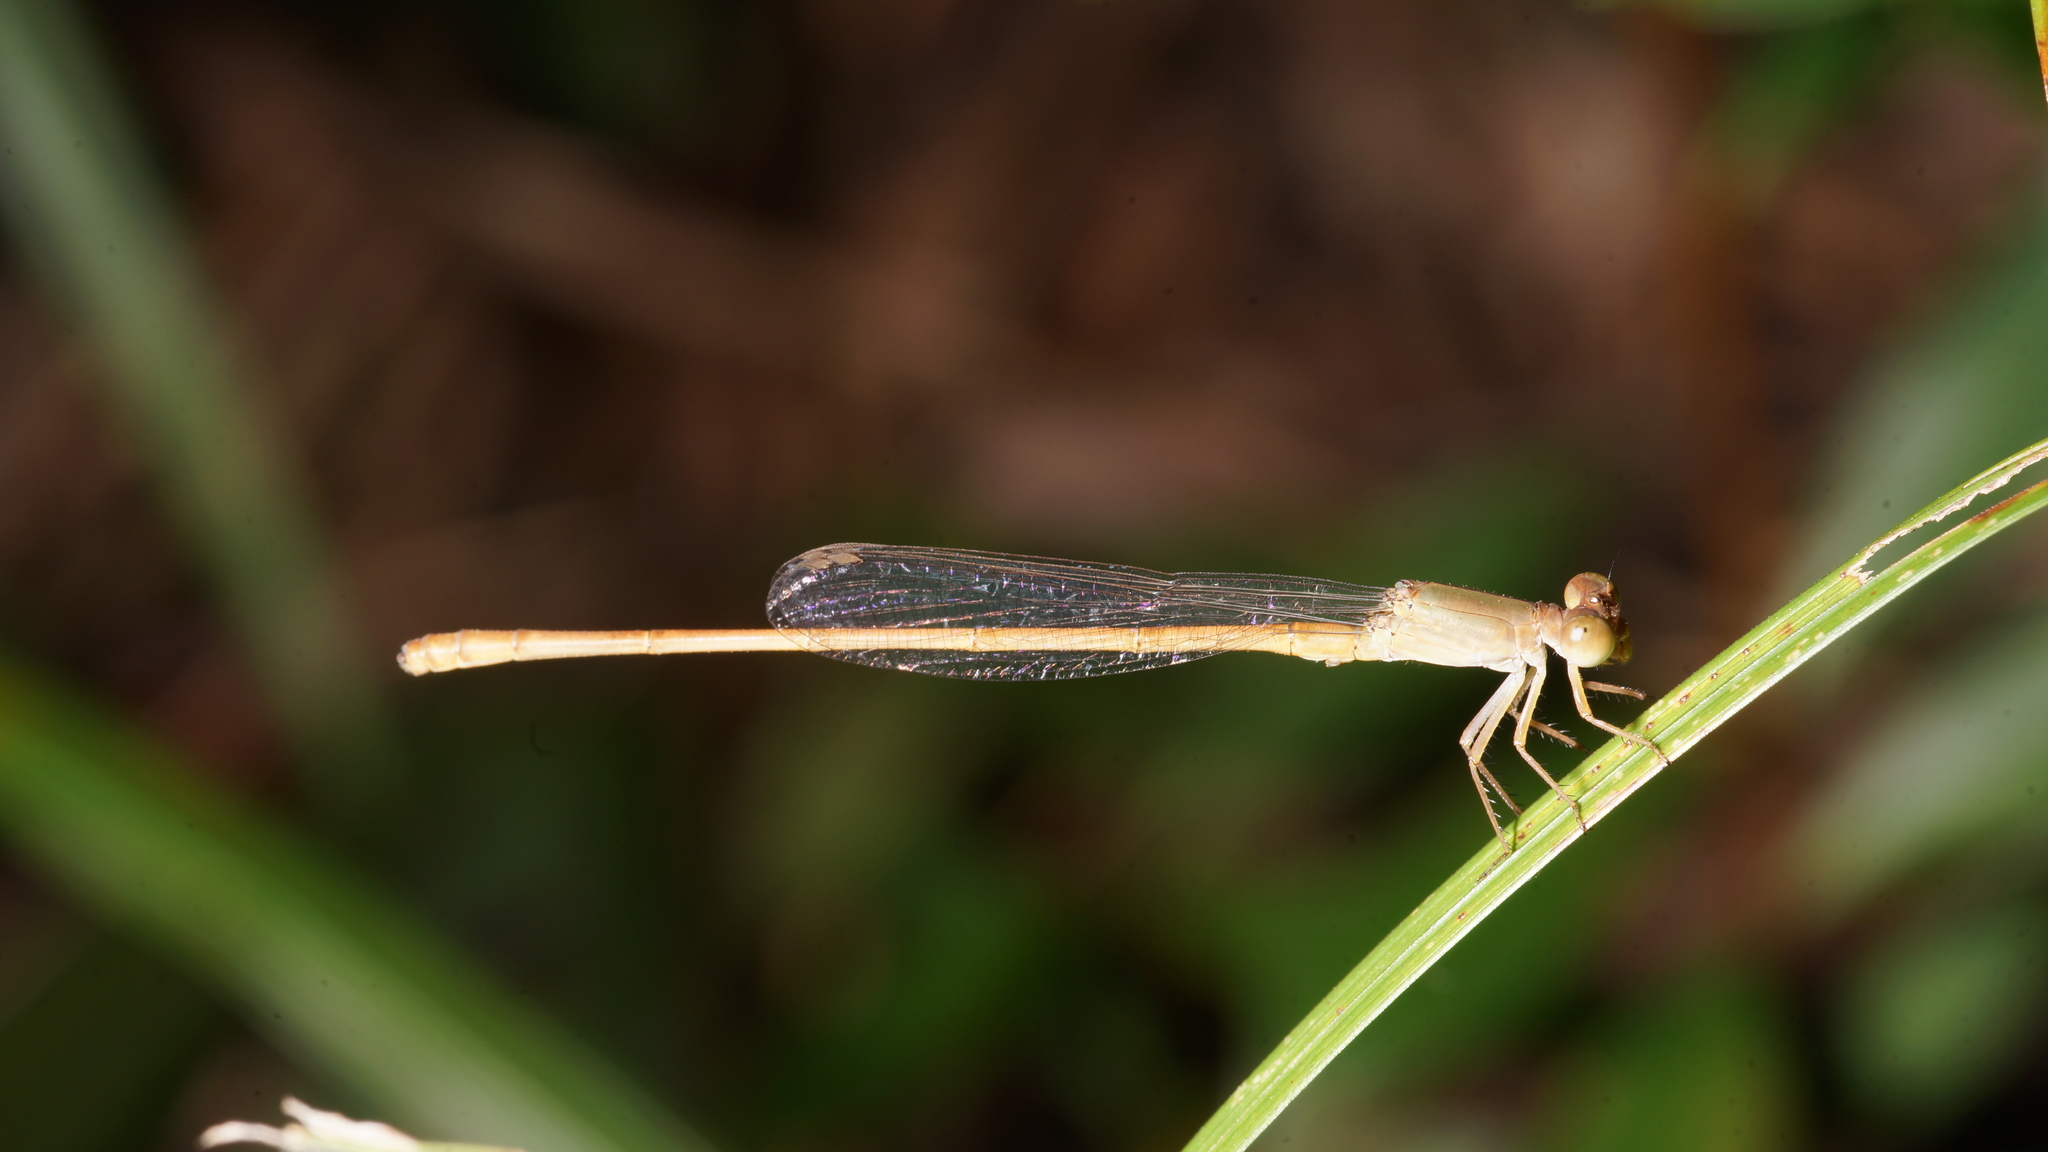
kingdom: Animalia
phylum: Arthropoda
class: Insecta
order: Odonata
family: Coenagrionidae
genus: Ceriagrion
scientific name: Ceriagrion olivaceum
